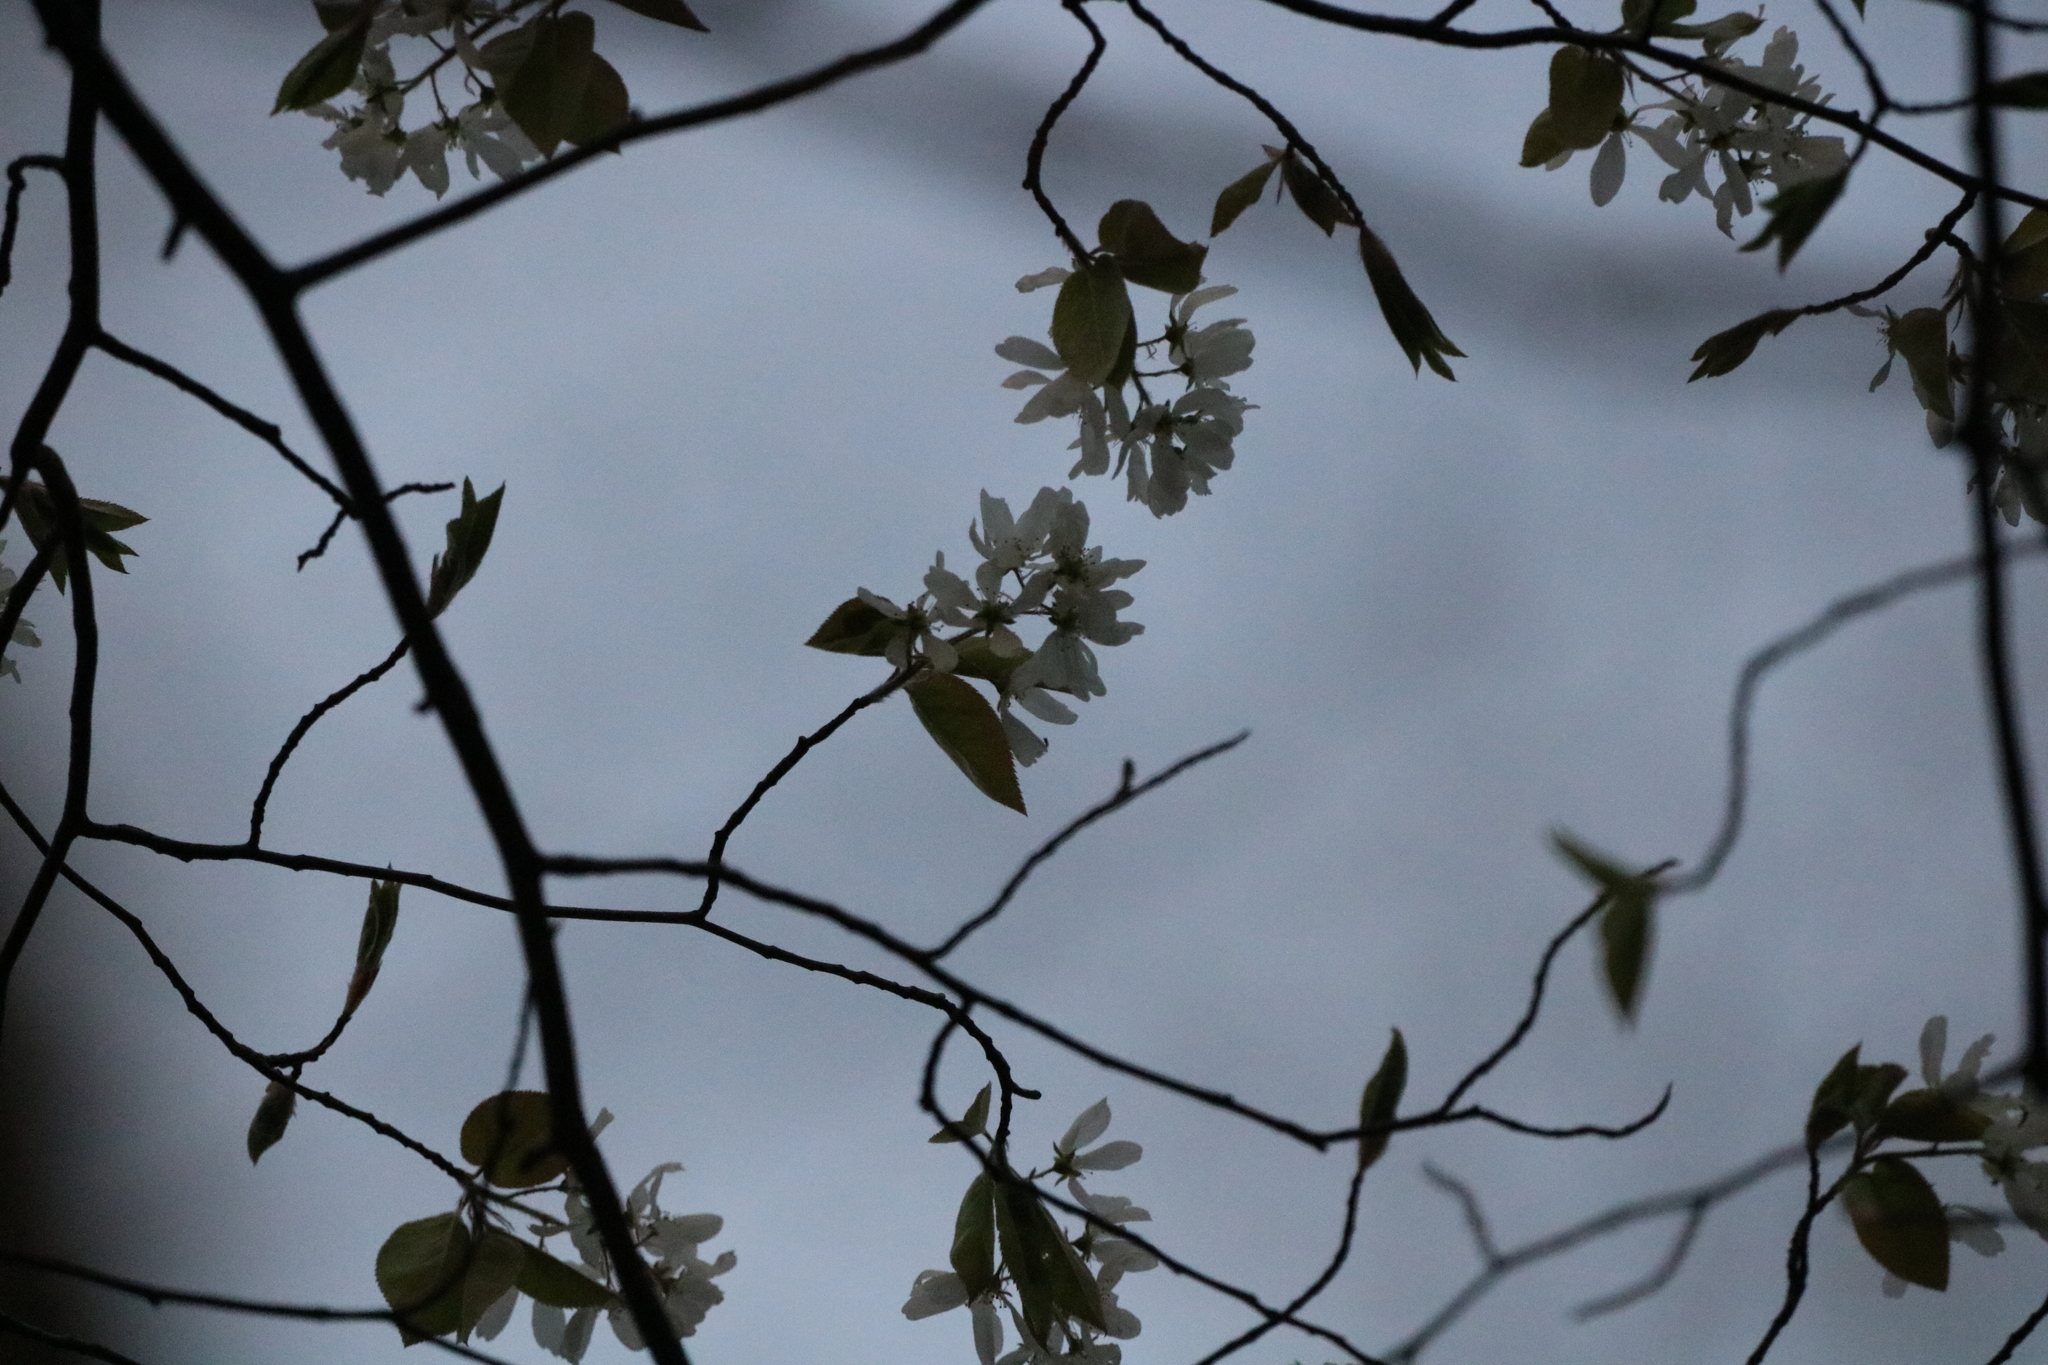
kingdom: Plantae
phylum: Tracheophyta
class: Magnoliopsida
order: Rosales
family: Rosaceae
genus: Amelanchier
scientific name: Amelanchier arborea
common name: Downy serviceberry
